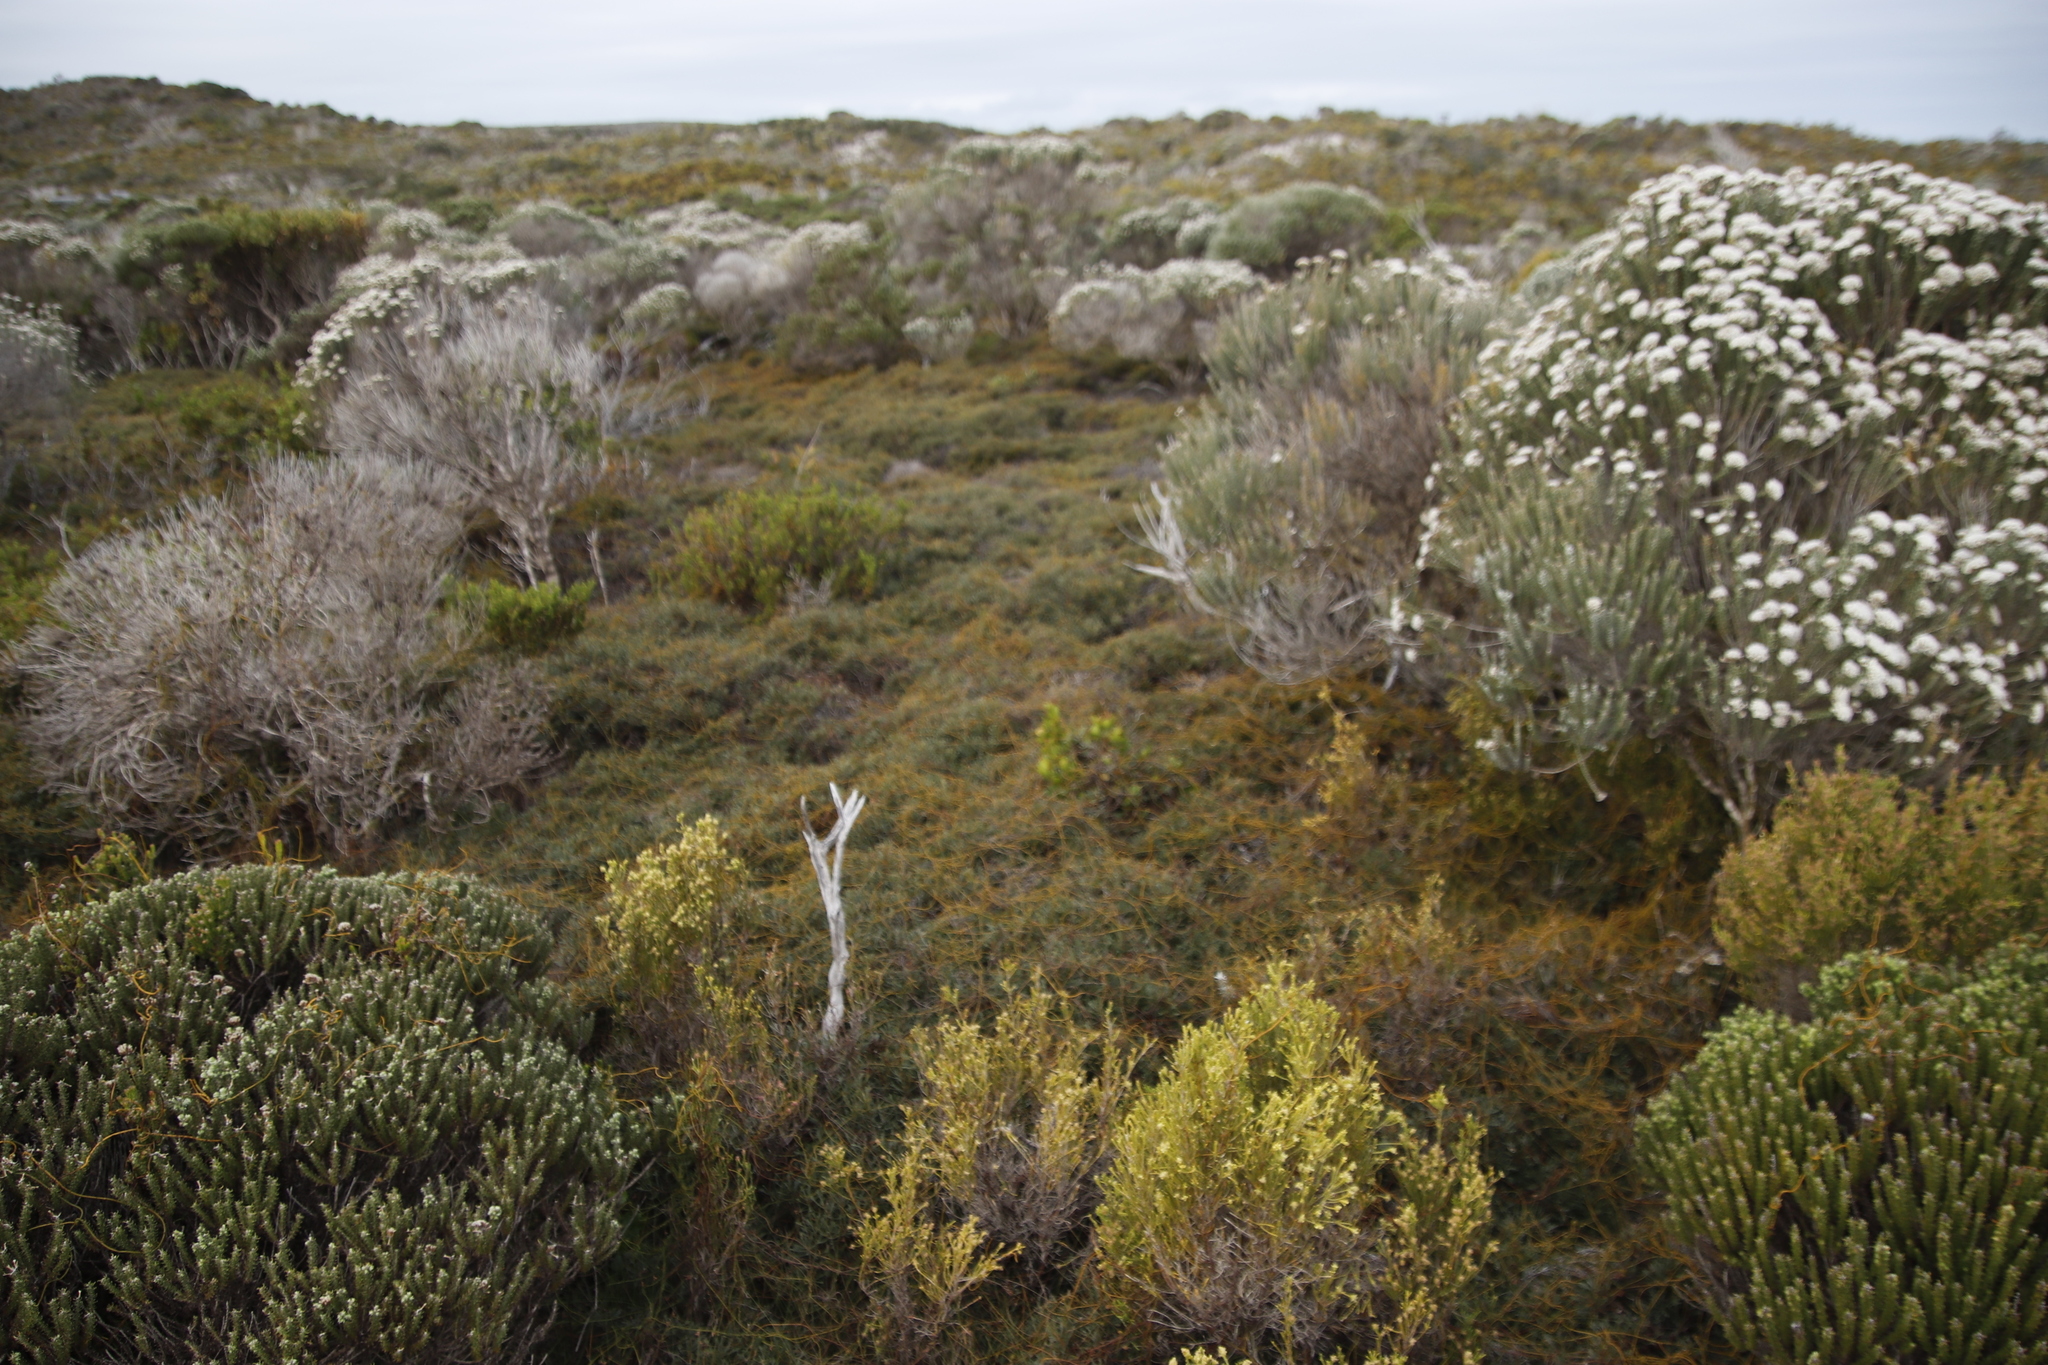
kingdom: Plantae
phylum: Tracheophyta
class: Magnoliopsida
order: Laurales
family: Lauraceae
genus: Cassytha
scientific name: Cassytha ciliolata
